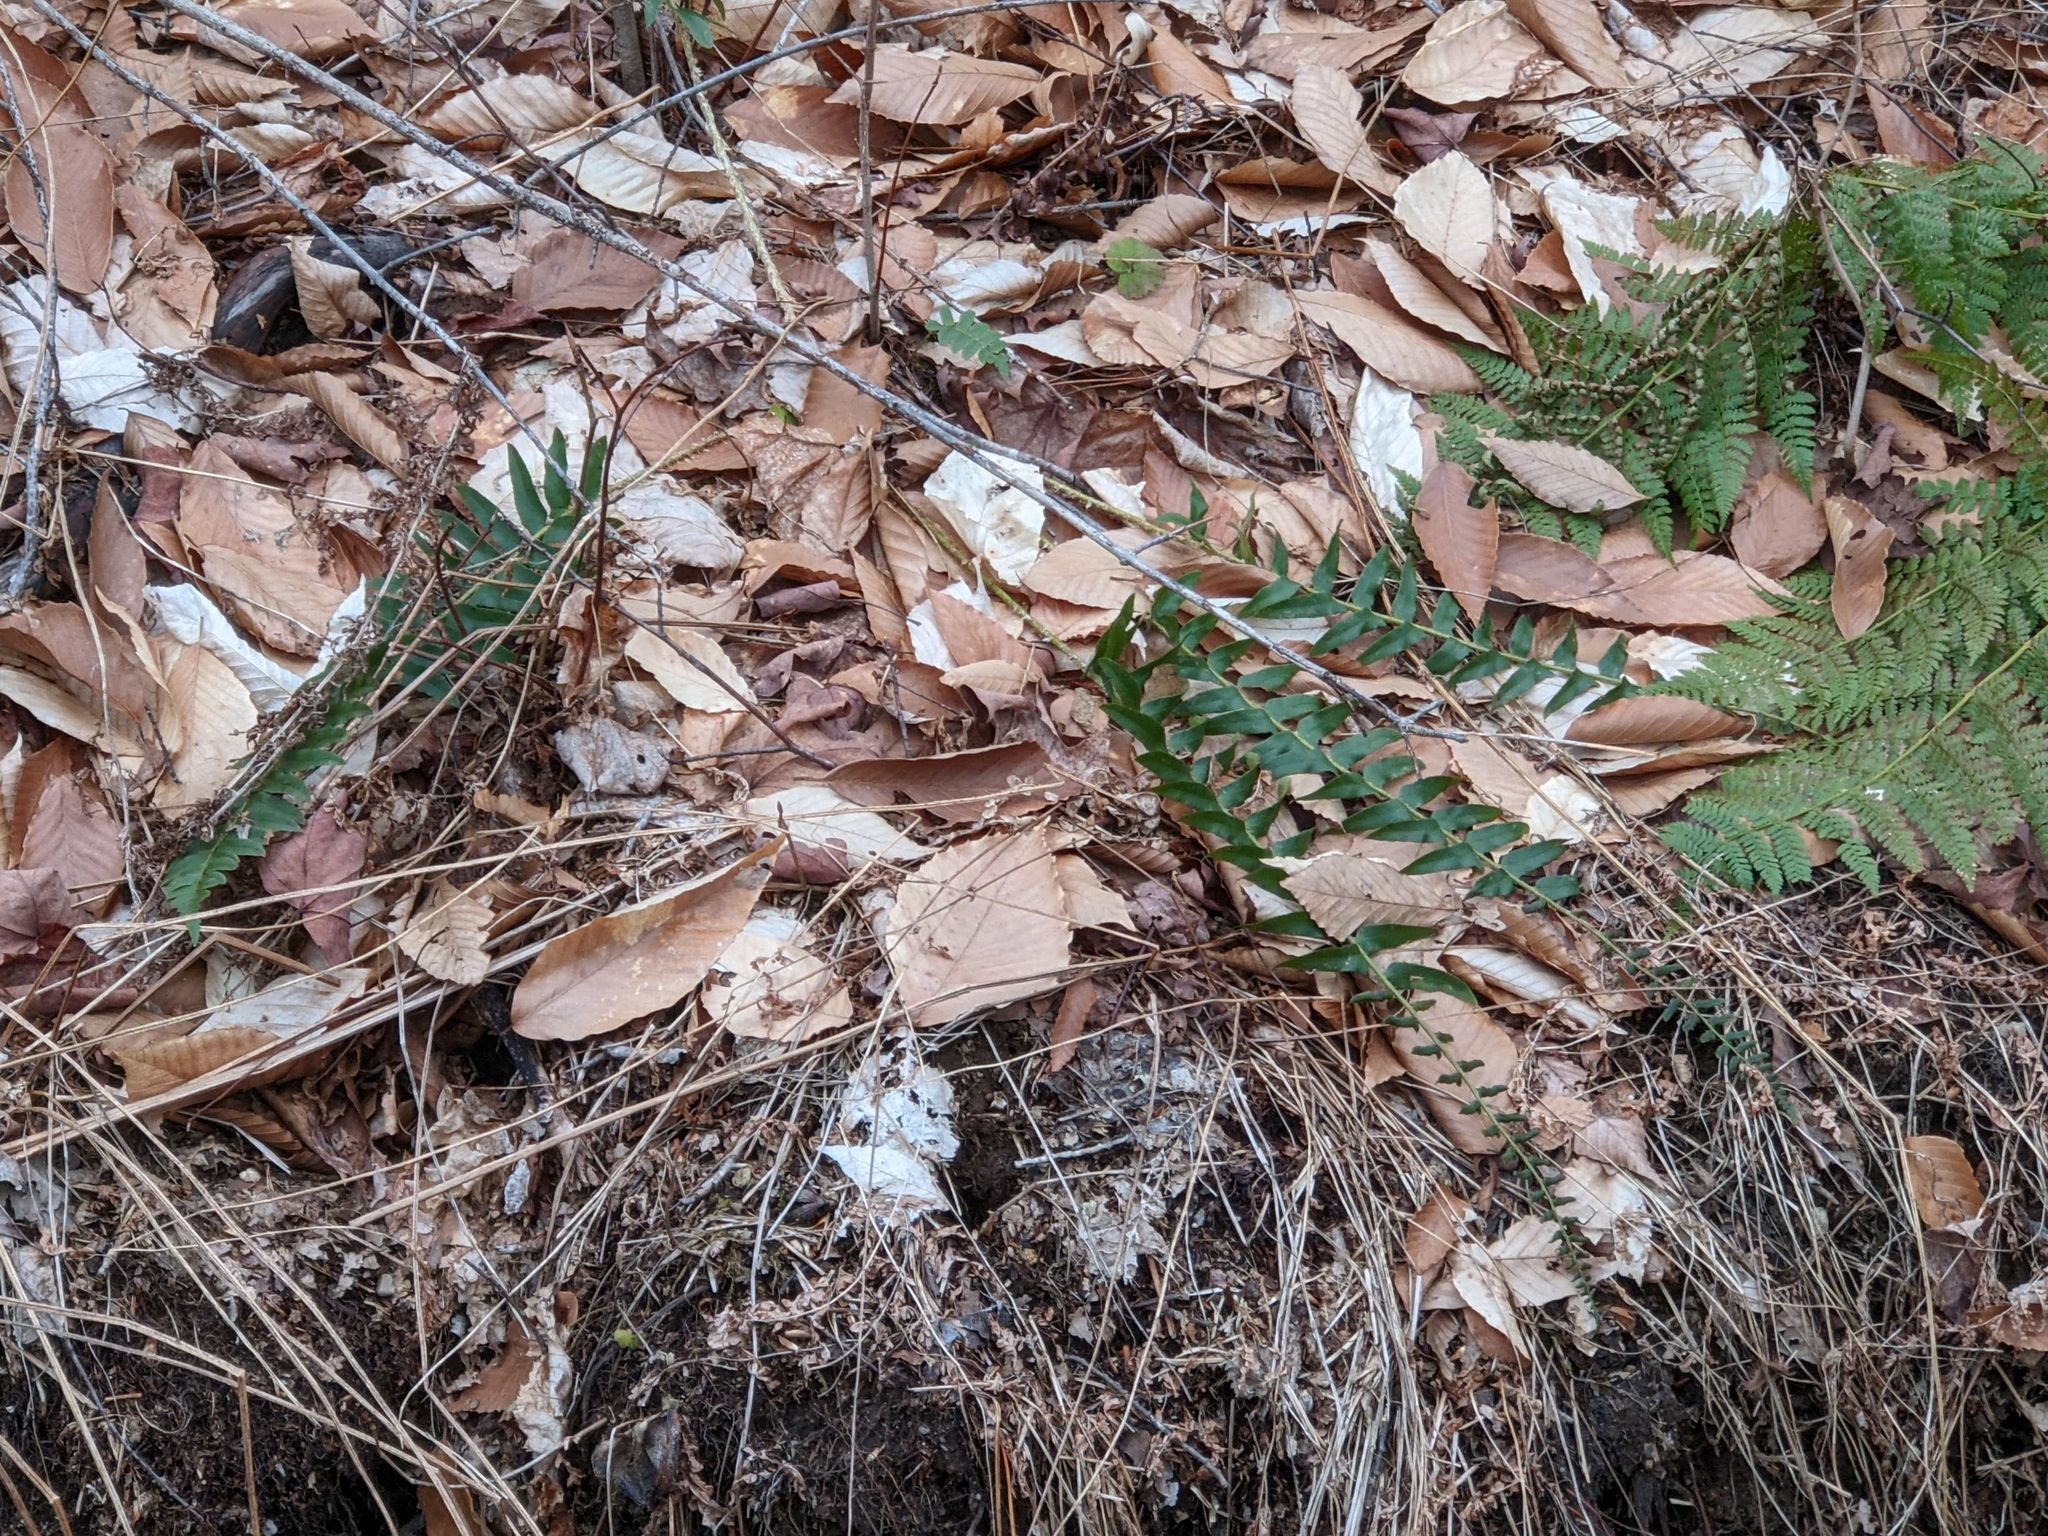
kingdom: Plantae
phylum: Tracheophyta
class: Polypodiopsida
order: Polypodiales
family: Dryopteridaceae
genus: Polystichum
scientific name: Polystichum acrostichoides
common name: Christmas fern
